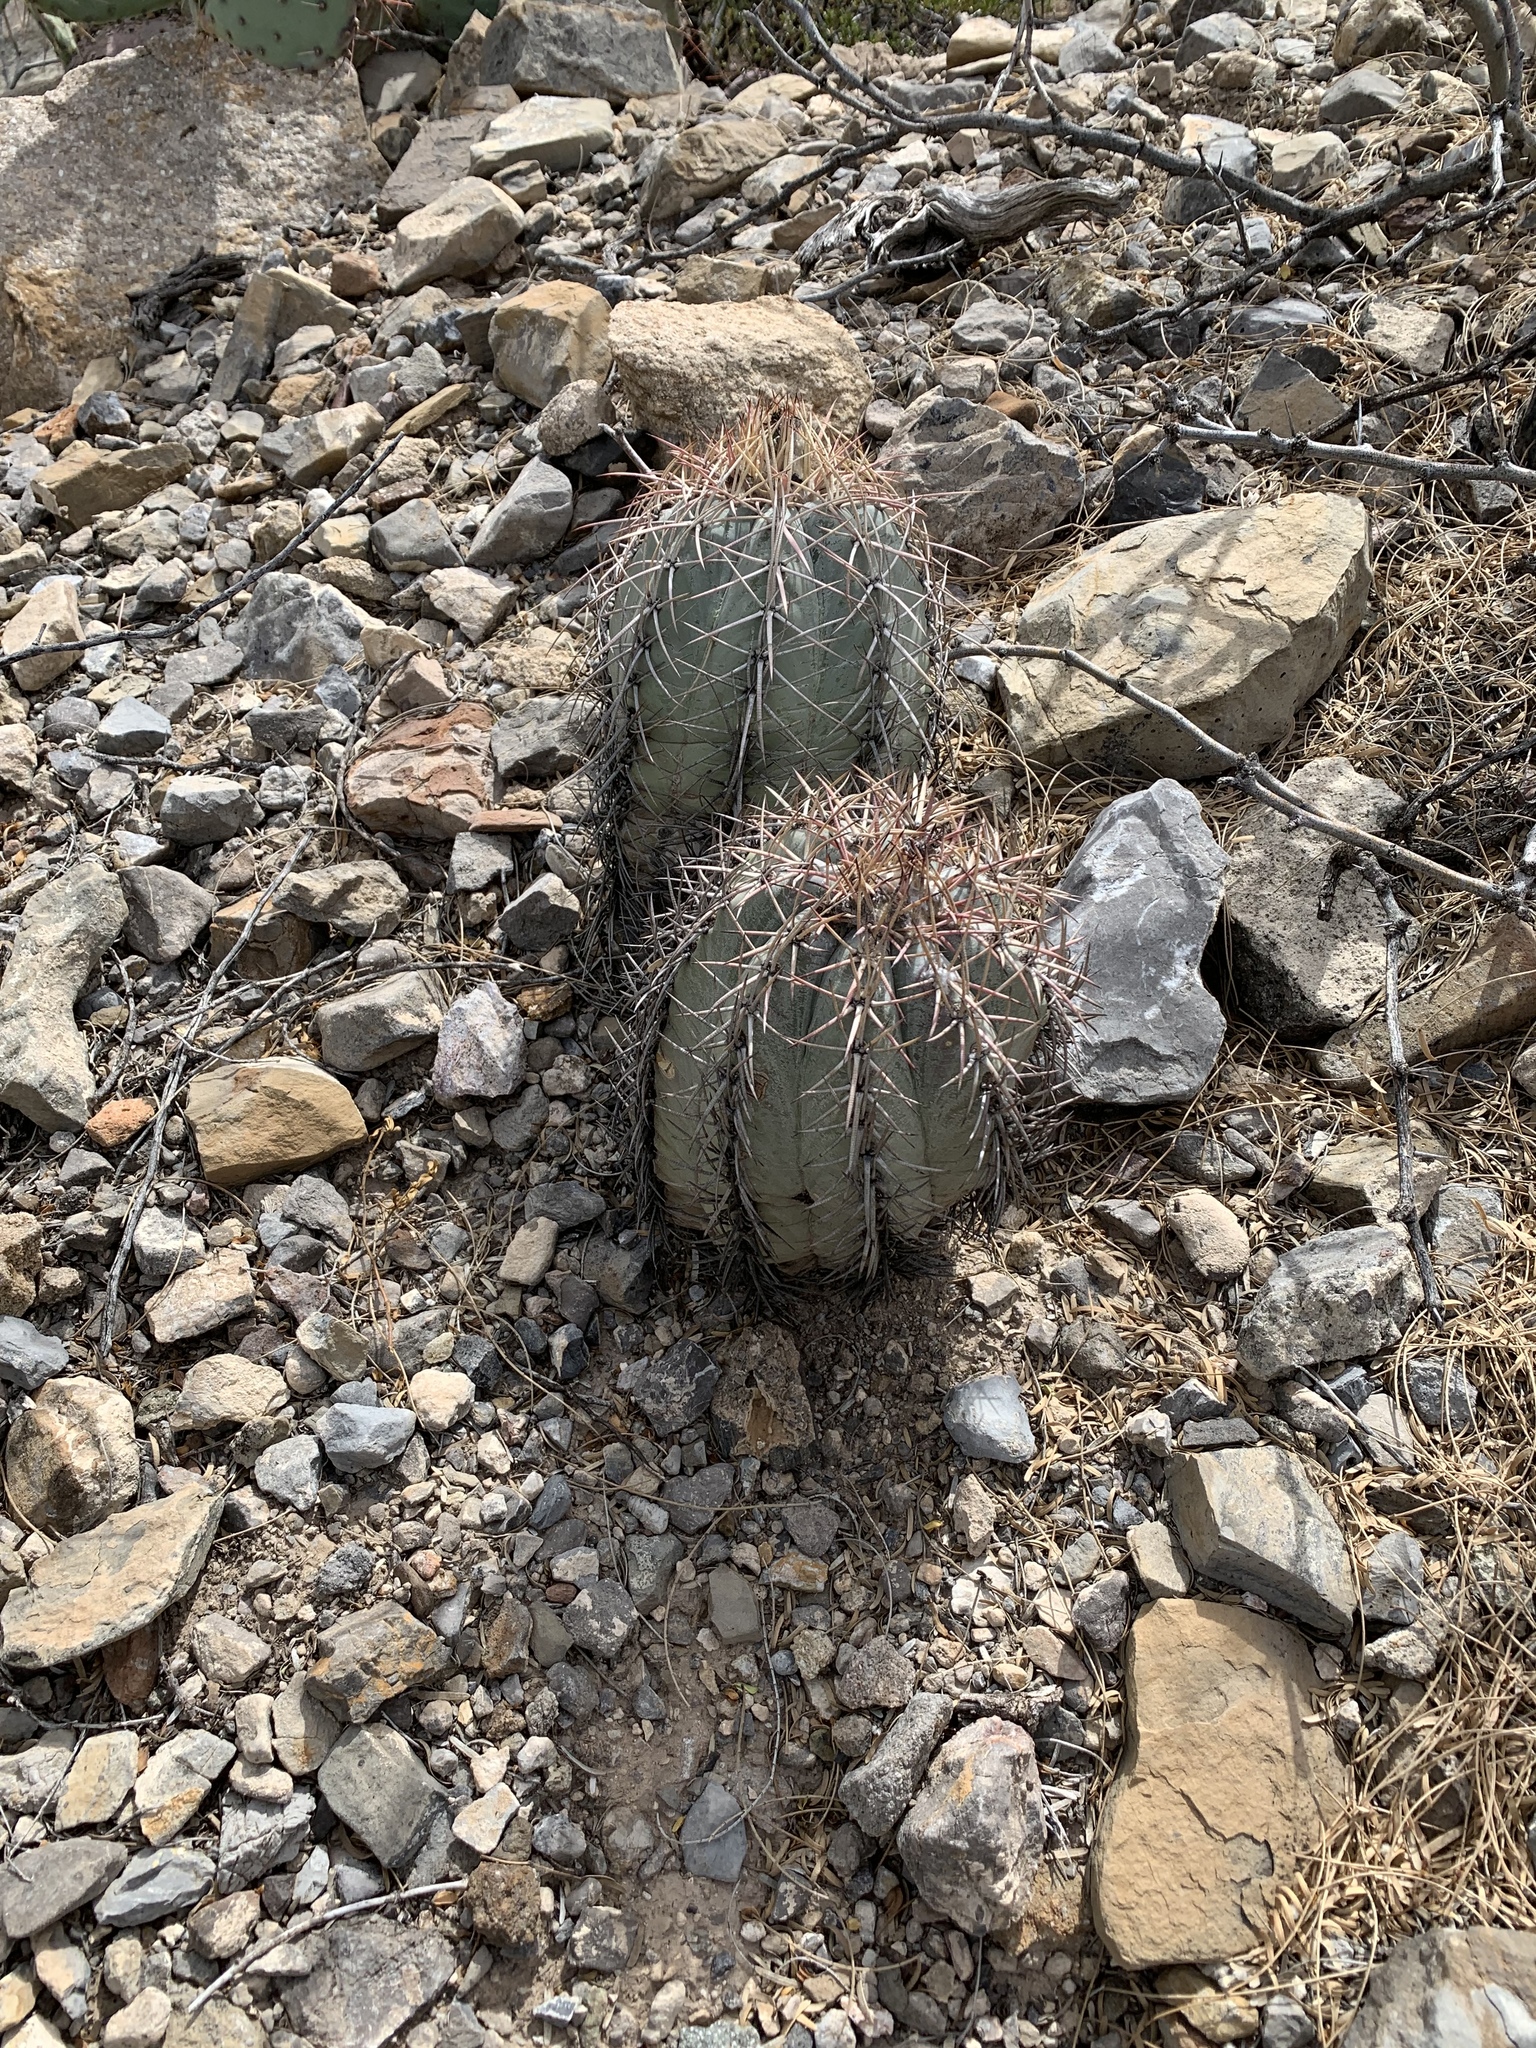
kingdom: Plantae
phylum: Tracheophyta
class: Magnoliopsida
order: Caryophyllales
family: Cactaceae
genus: Echinocactus
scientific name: Echinocactus horizonthalonius
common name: Devilshead
